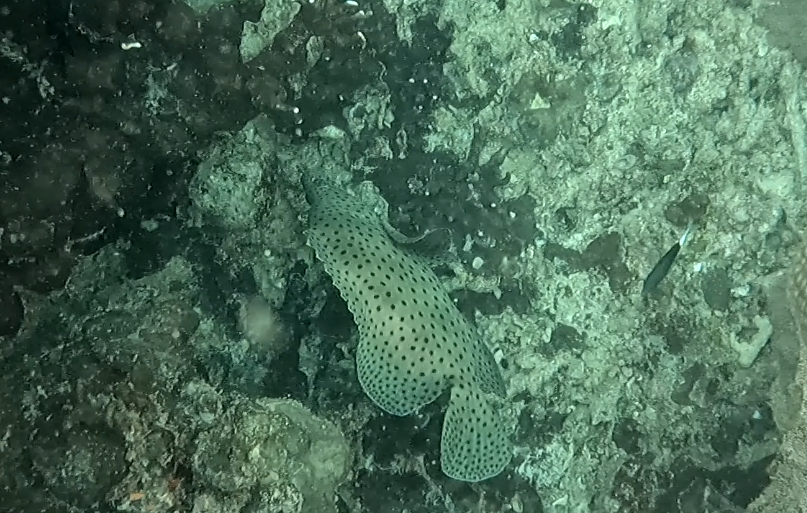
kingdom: Animalia
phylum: Chordata
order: Perciformes
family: Serranidae
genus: Cromileptes
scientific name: Cromileptes altivelis
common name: Humpback grouper
